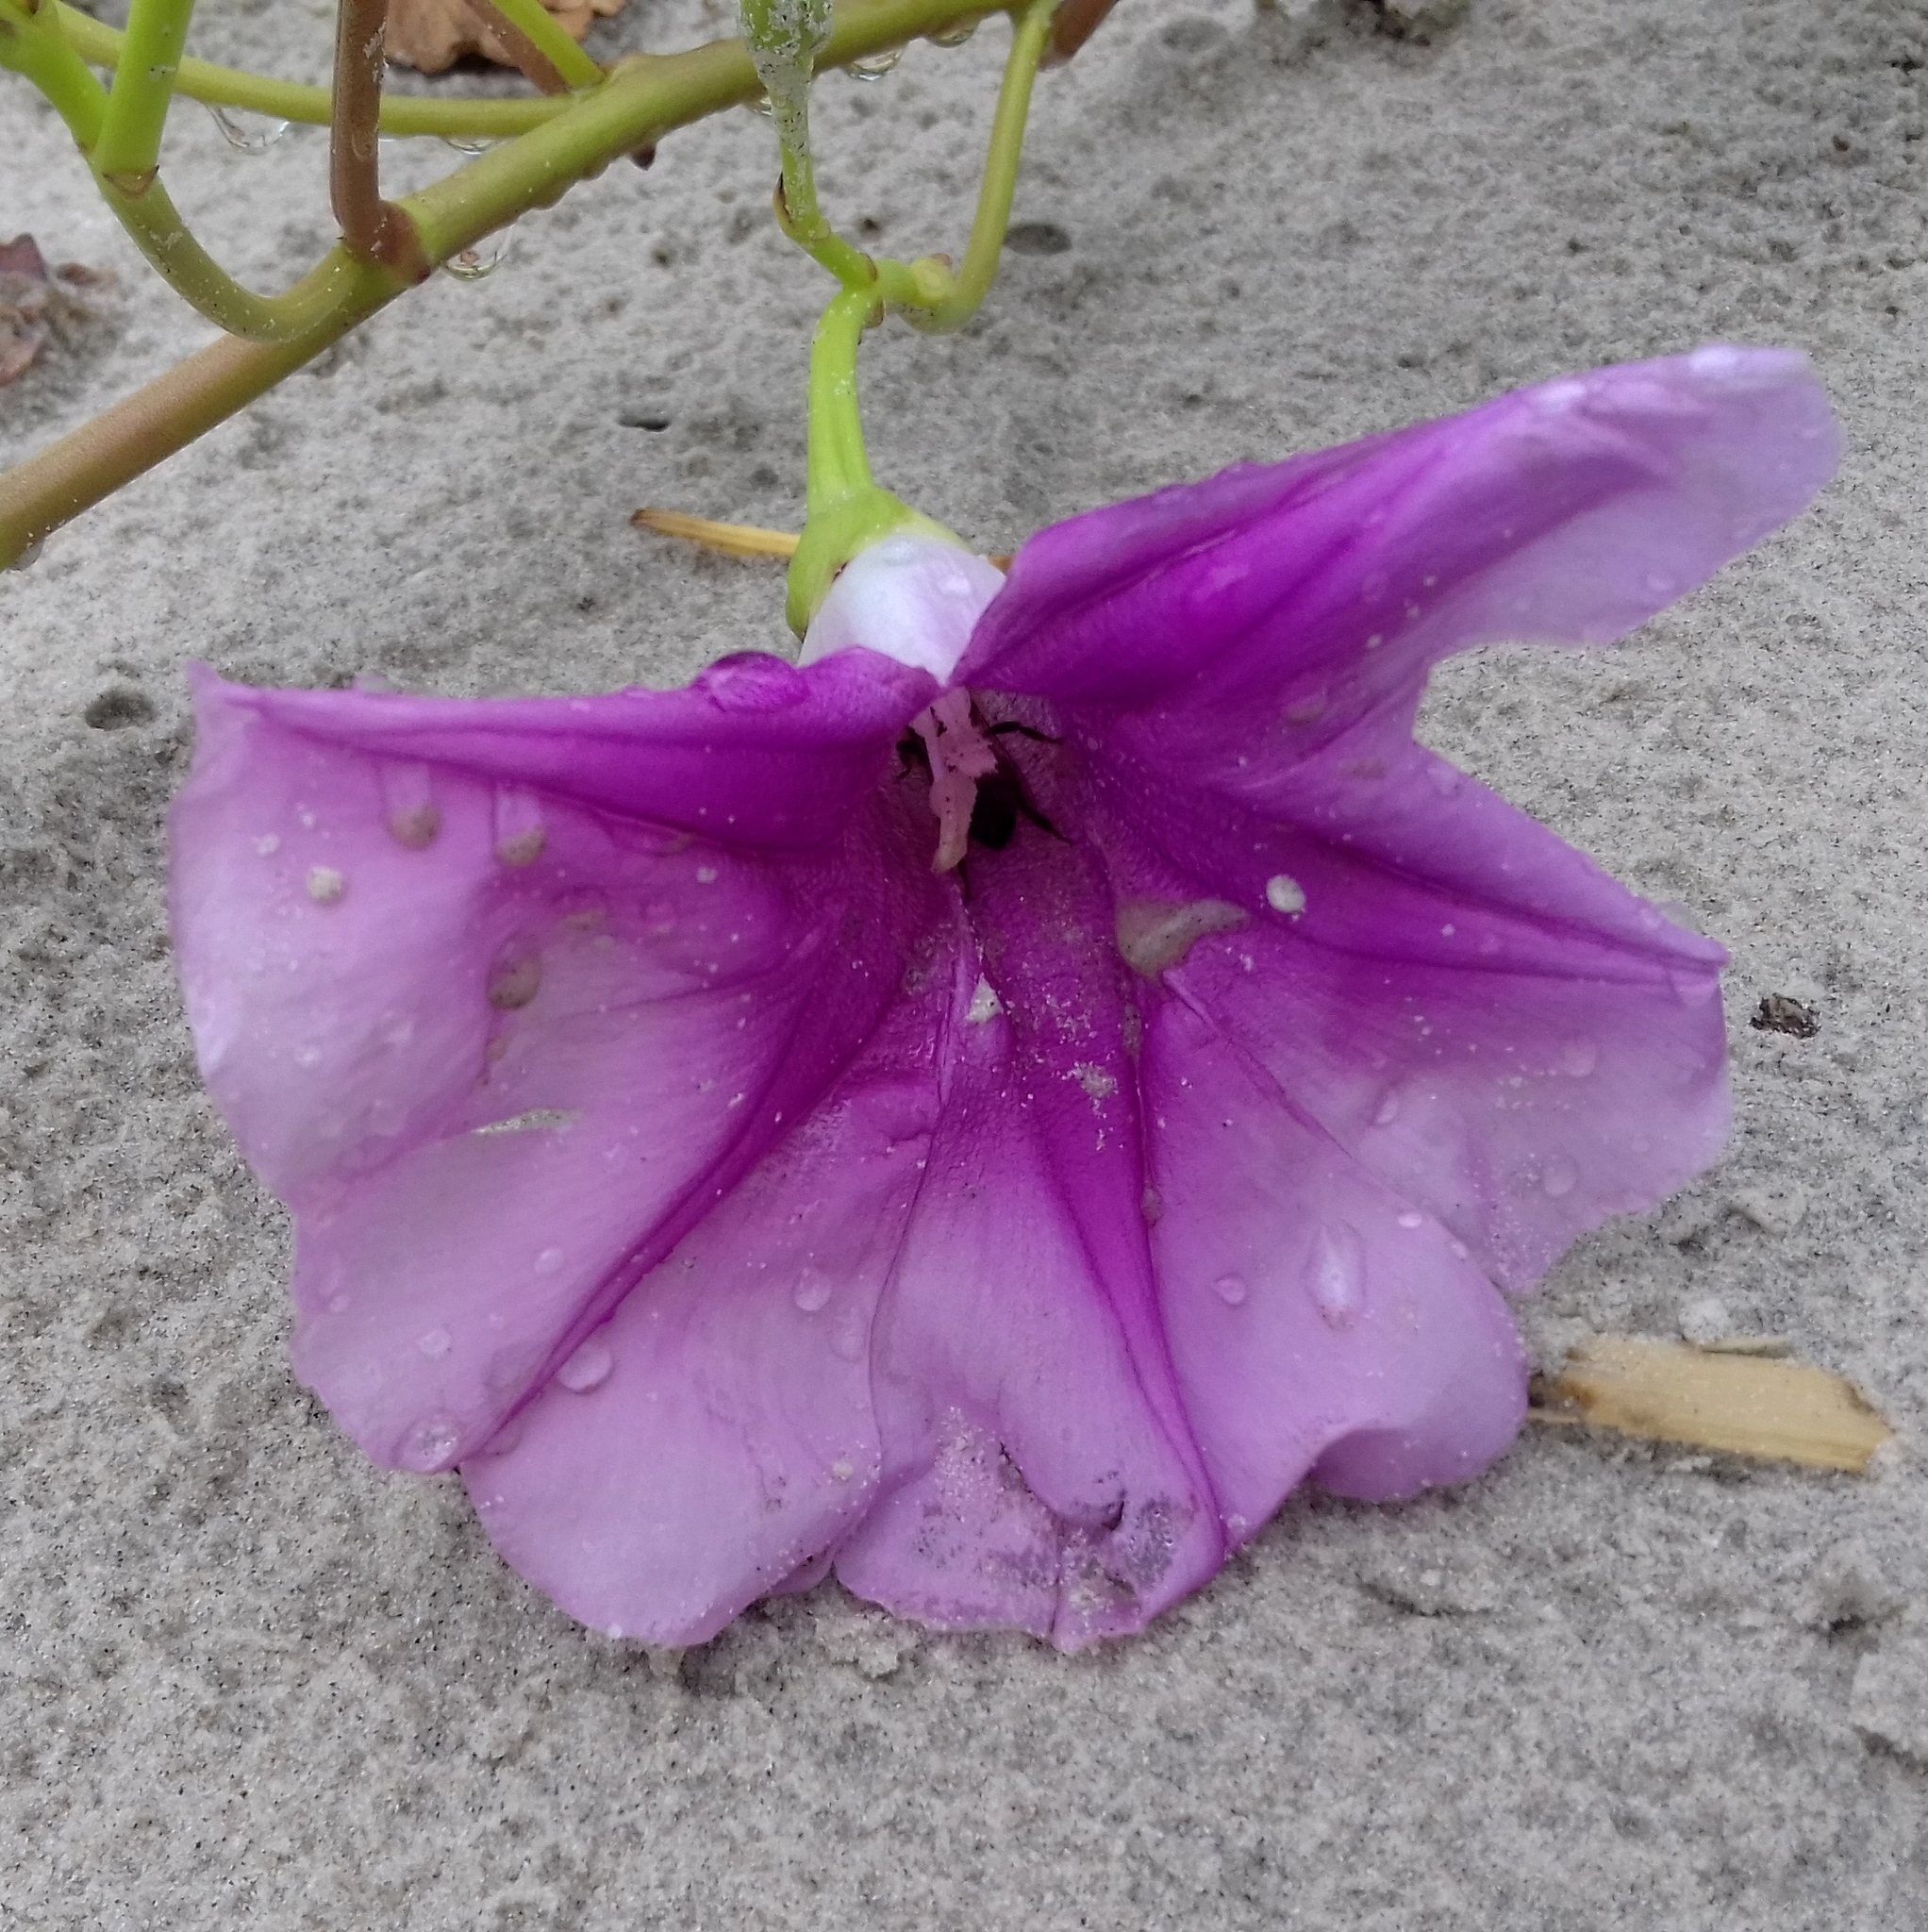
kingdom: Plantae
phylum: Tracheophyta
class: Magnoliopsida
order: Solanales
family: Convolvulaceae
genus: Ipomoea
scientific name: Ipomoea pes-caprae
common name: Beach morning glory
